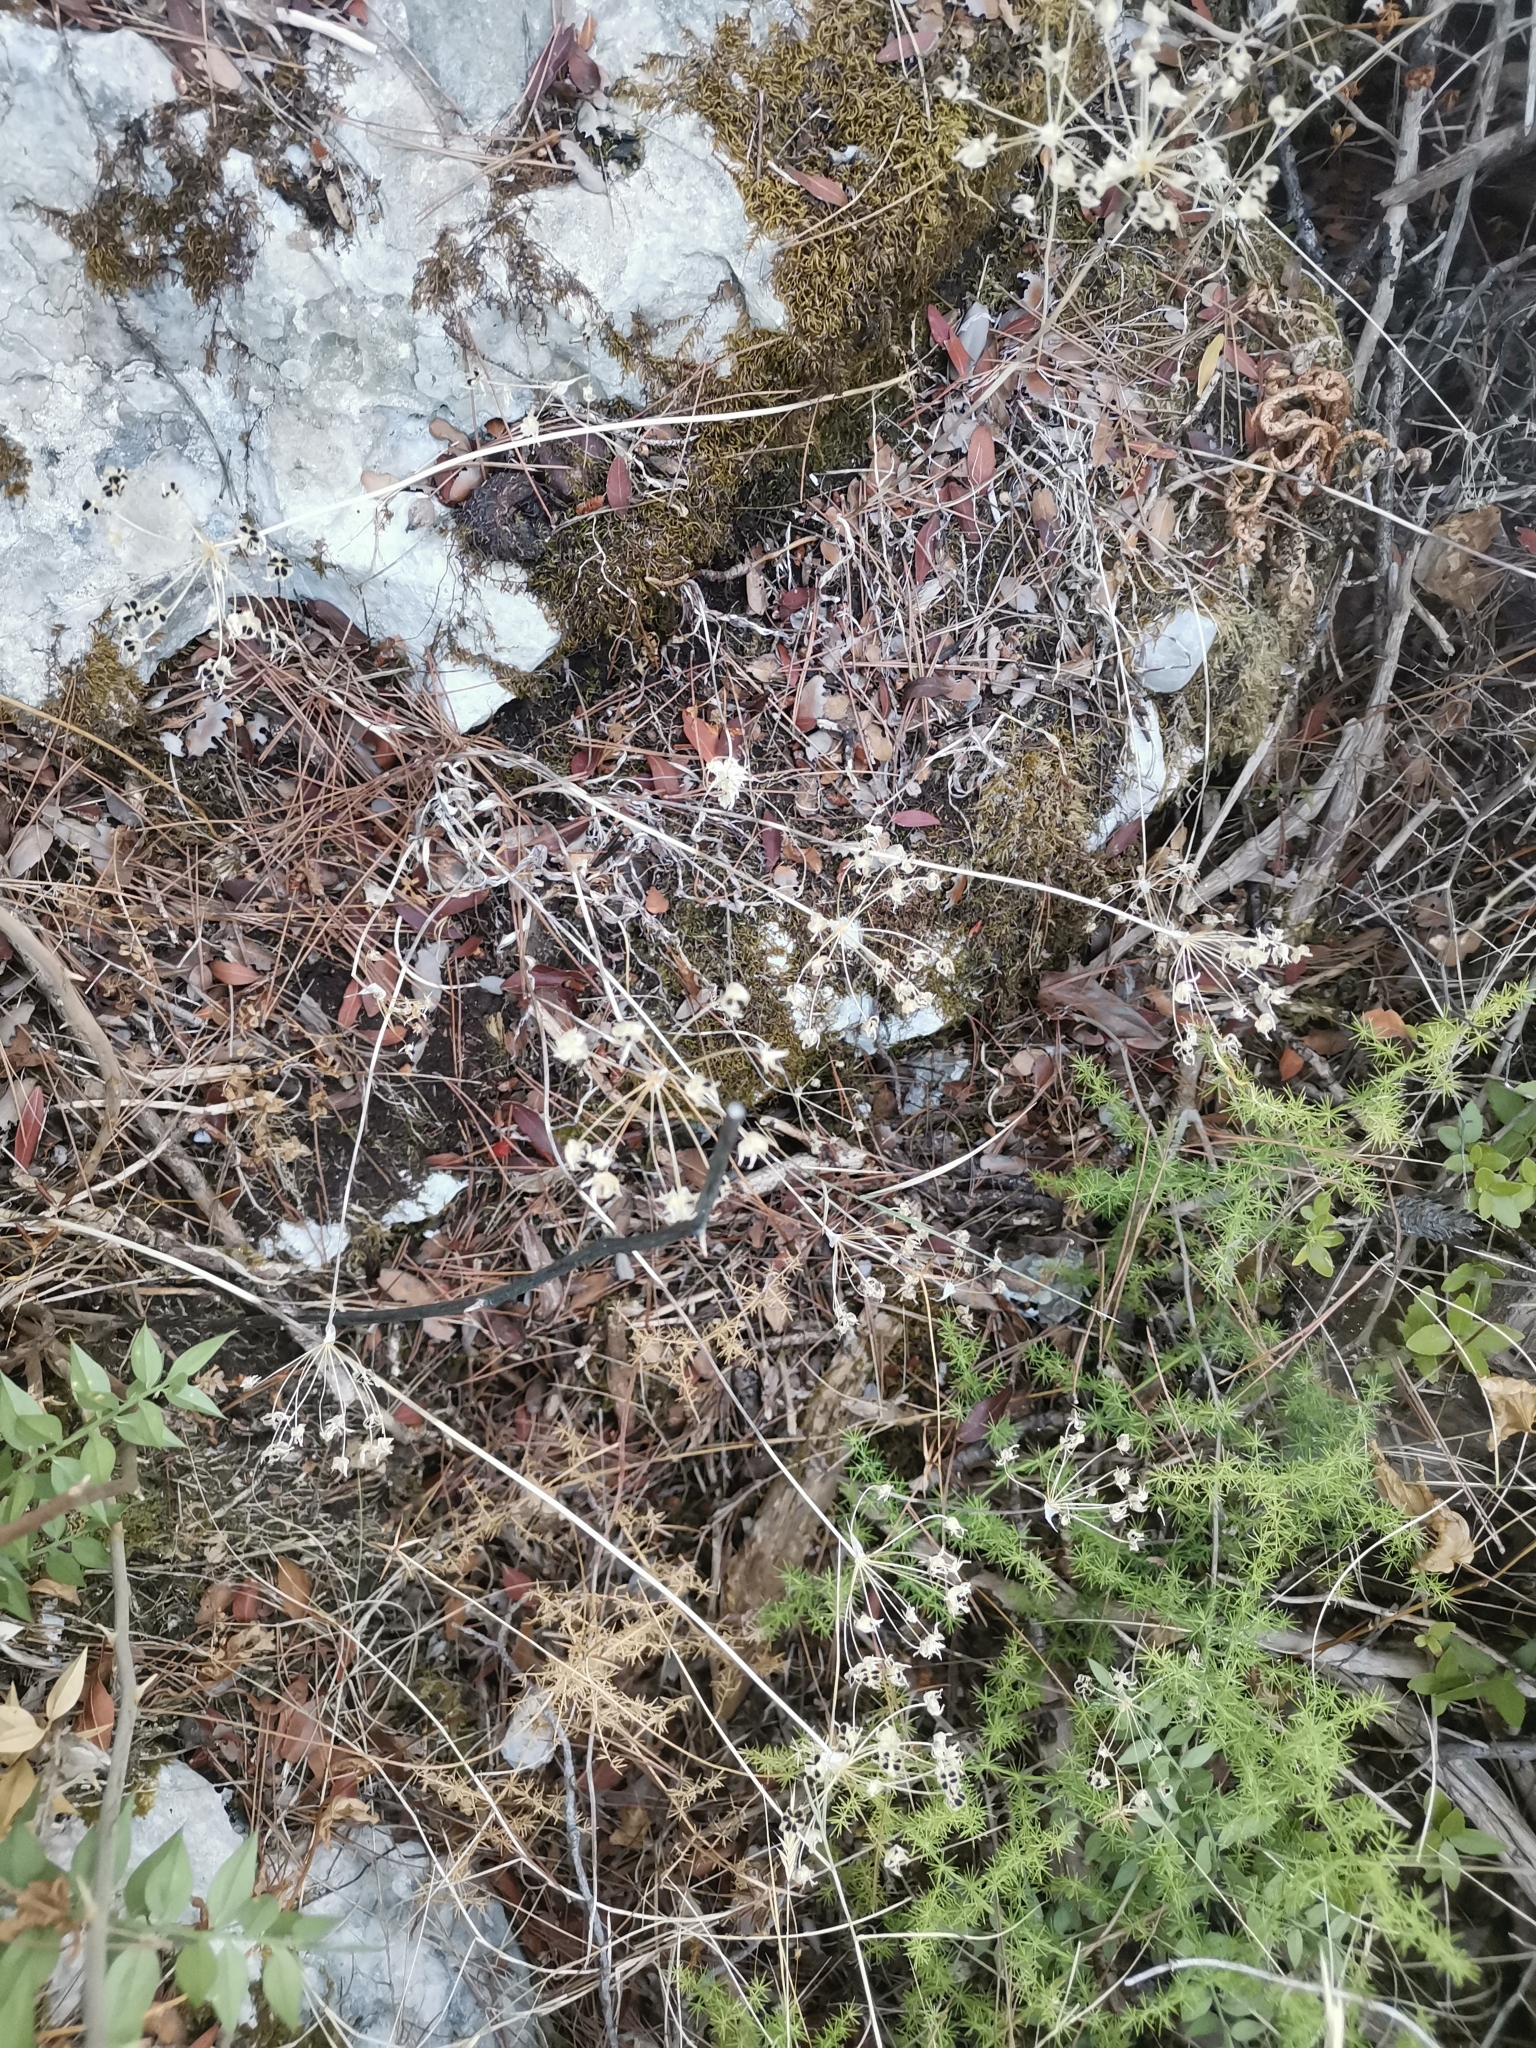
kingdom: Plantae
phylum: Tracheophyta
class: Liliopsida
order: Asparagales
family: Amaryllidaceae
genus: Allium
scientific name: Allium subhirsutum
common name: Hairy garlic
